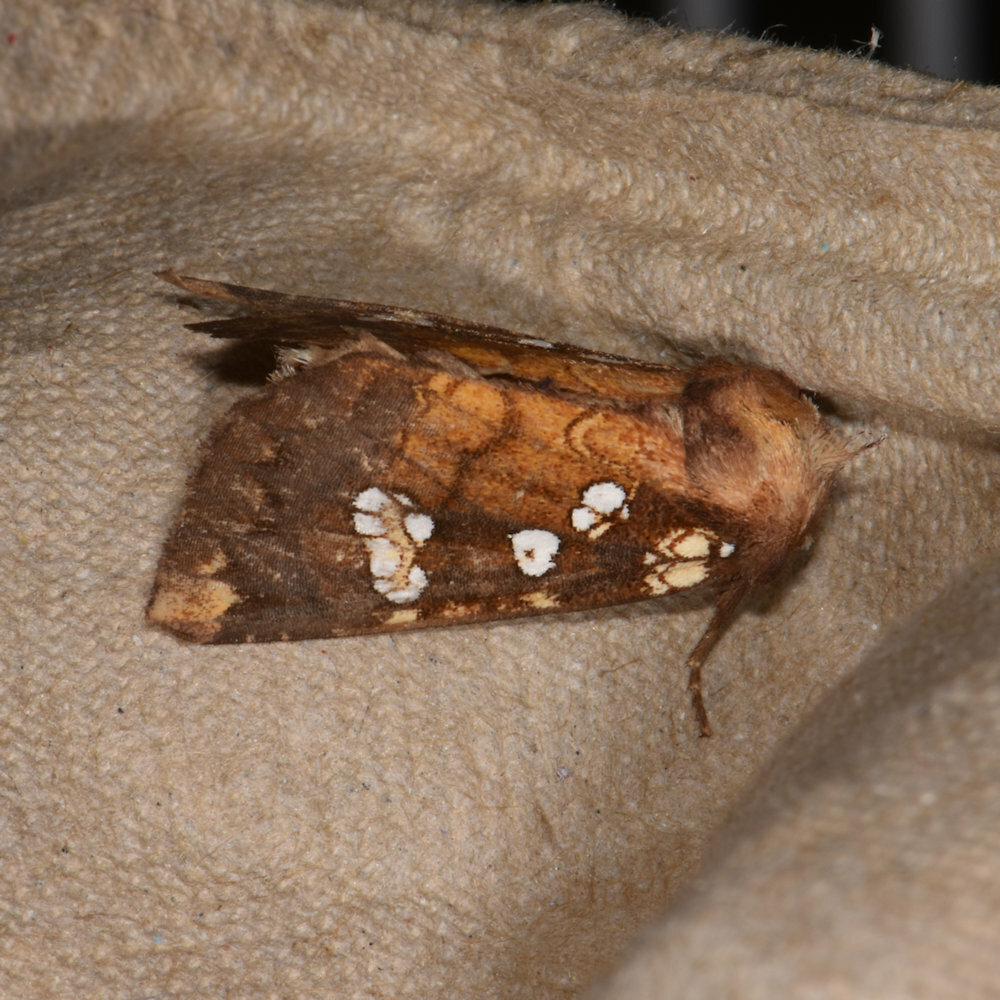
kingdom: Animalia
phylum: Arthropoda
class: Insecta
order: Lepidoptera
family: Noctuidae
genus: Papaipema
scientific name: Papaipema insulidens
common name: Ragwort stem borer moth
